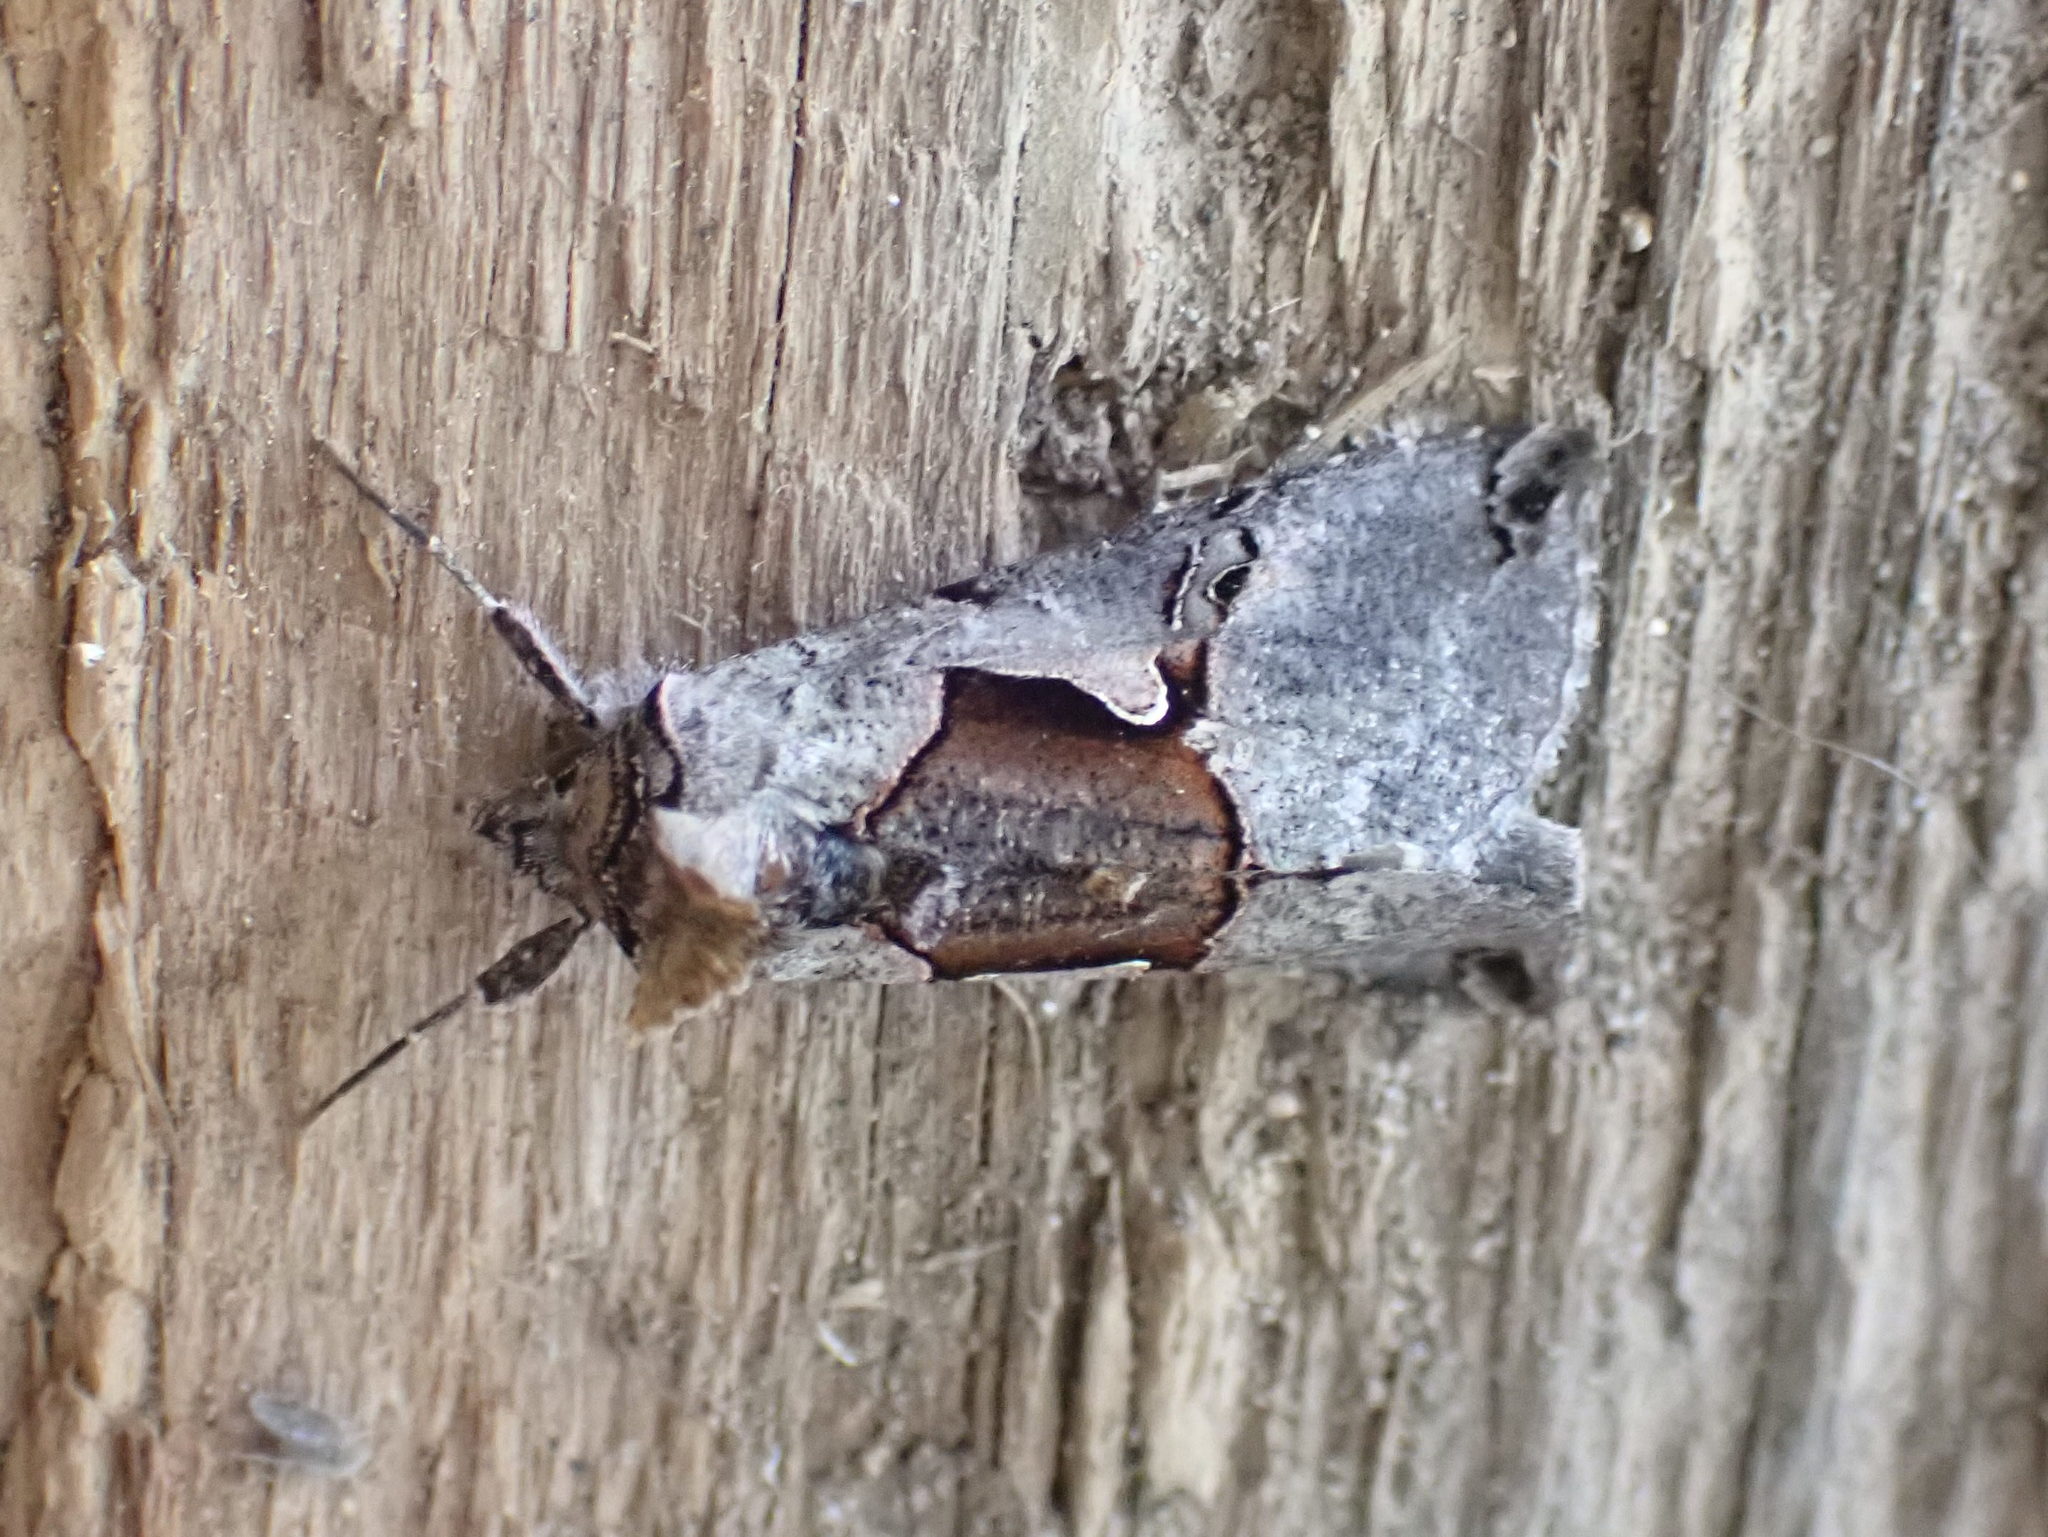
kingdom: Animalia
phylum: Arthropoda
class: Insecta
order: Lepidoptera
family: Noctuidae
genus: Autographa
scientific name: Autographa ampla
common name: Large looper moth
